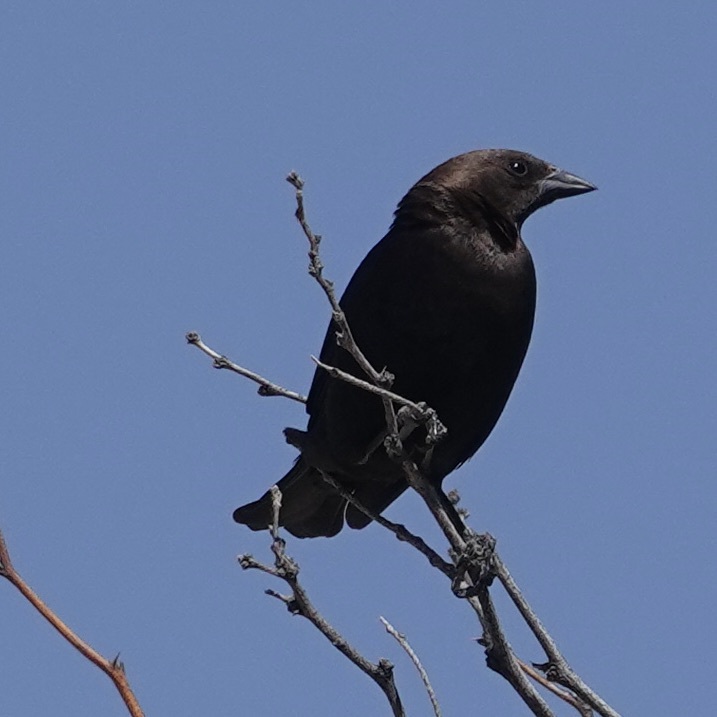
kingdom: Animalia
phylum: Chordata
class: Aves
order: Passeriformes
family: Icteridae
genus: Molothrus
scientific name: Molothrus ater
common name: Brown-headed cowbird
